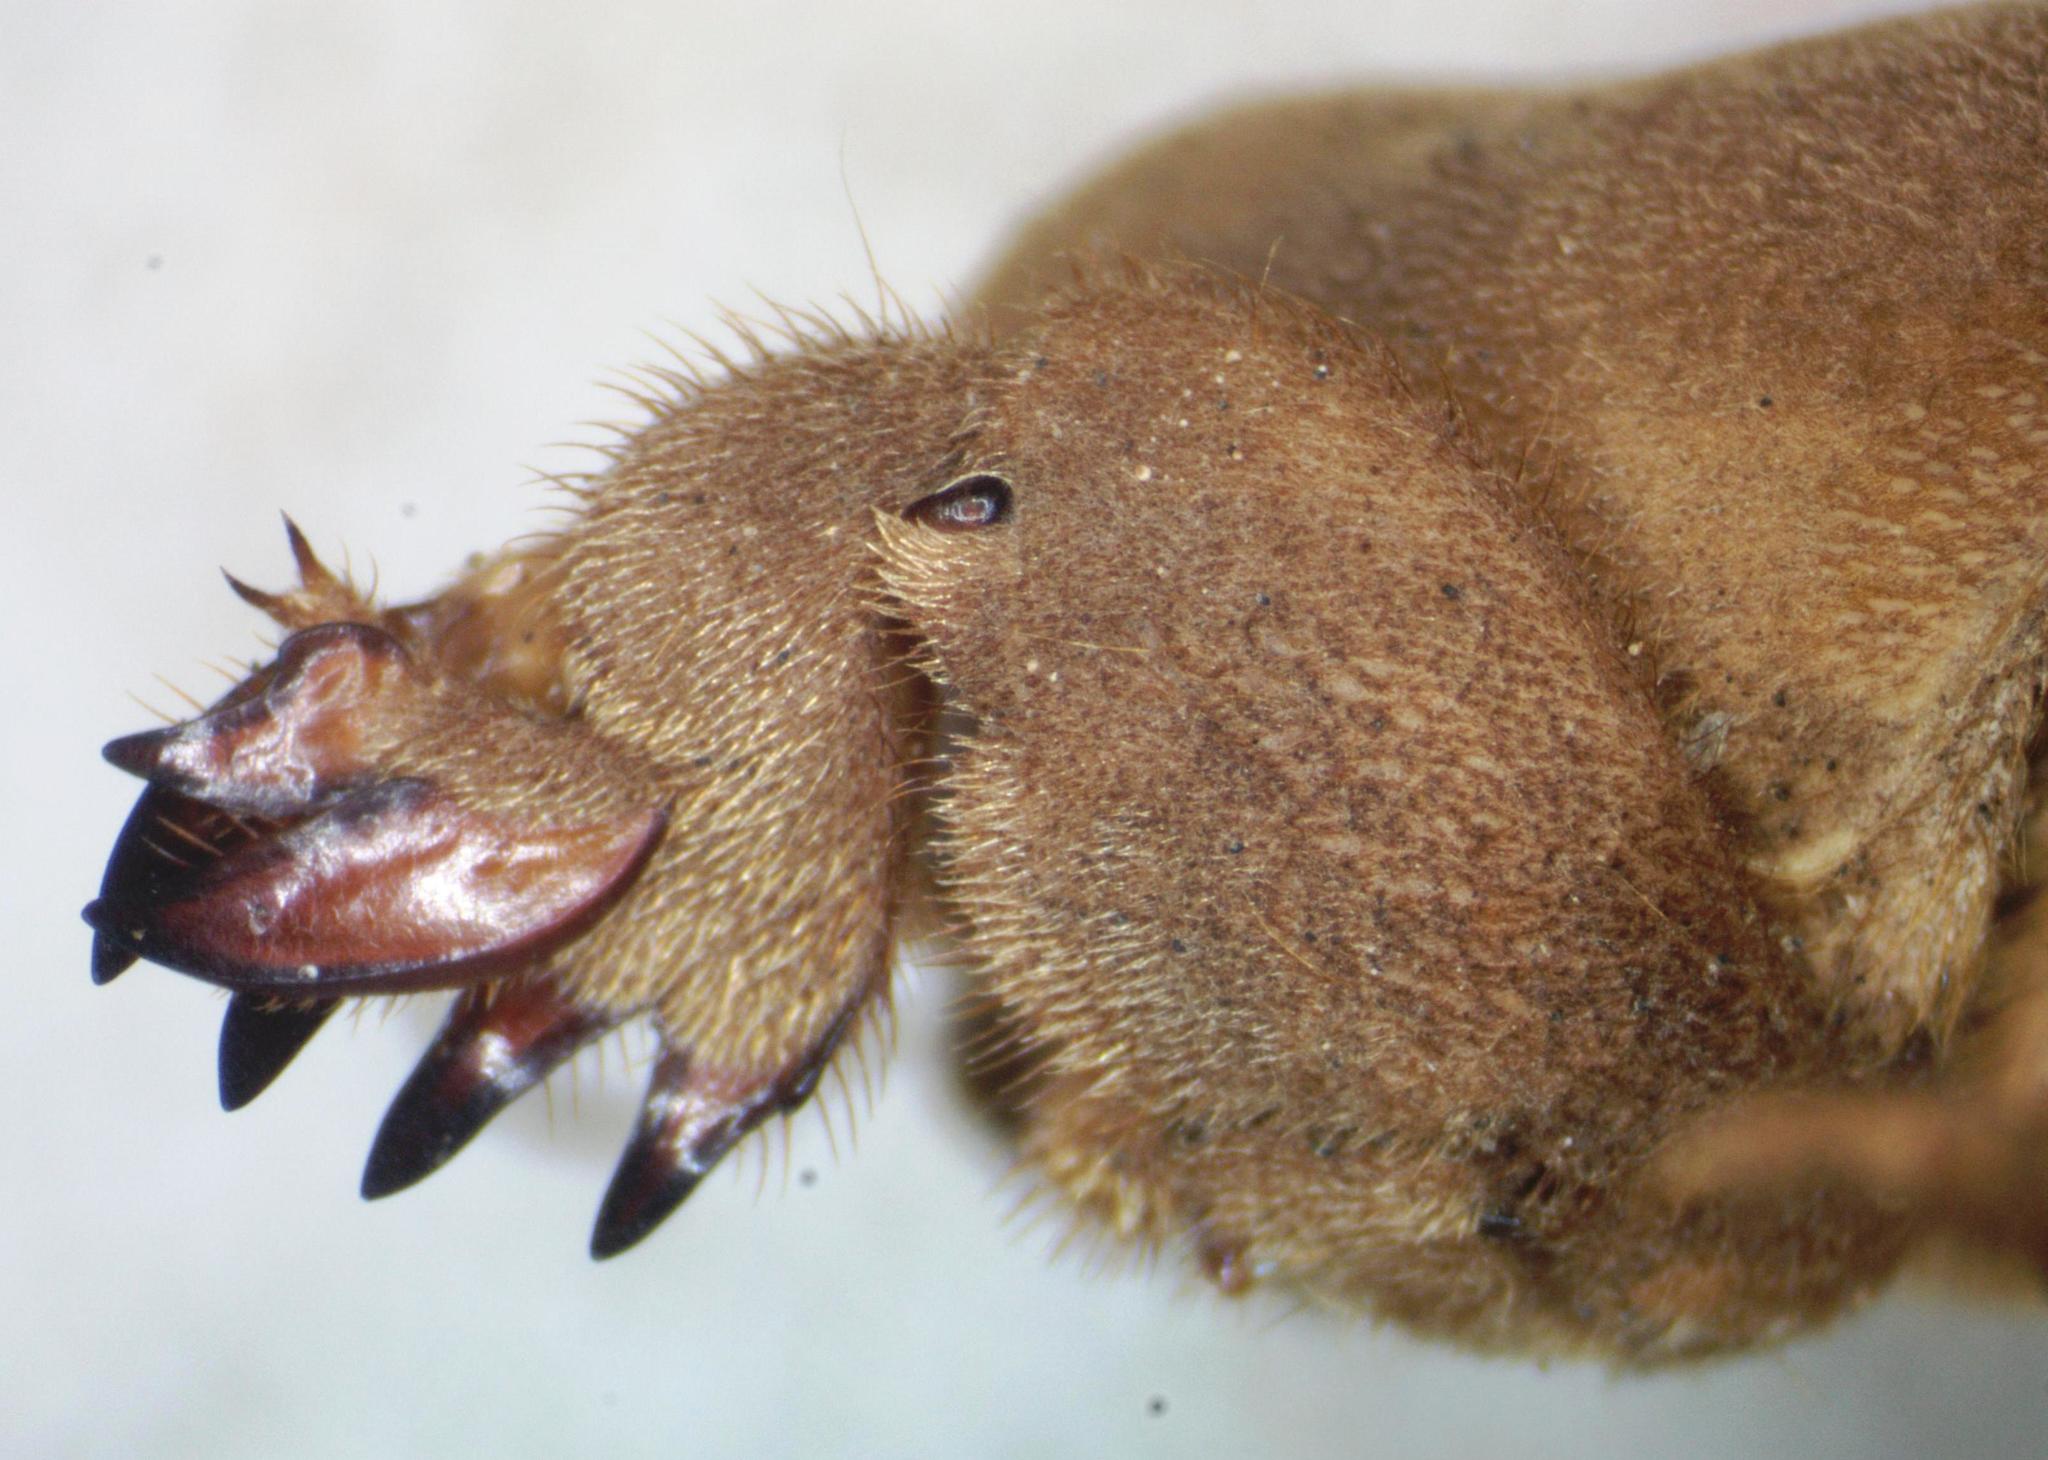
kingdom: Animalia
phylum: Arthropoda
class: Insecta
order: Orthoptera
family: Gryllotalpidae
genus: Neocurtilla
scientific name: Neocurtilla hexadactyla
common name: Northern mole cricket
